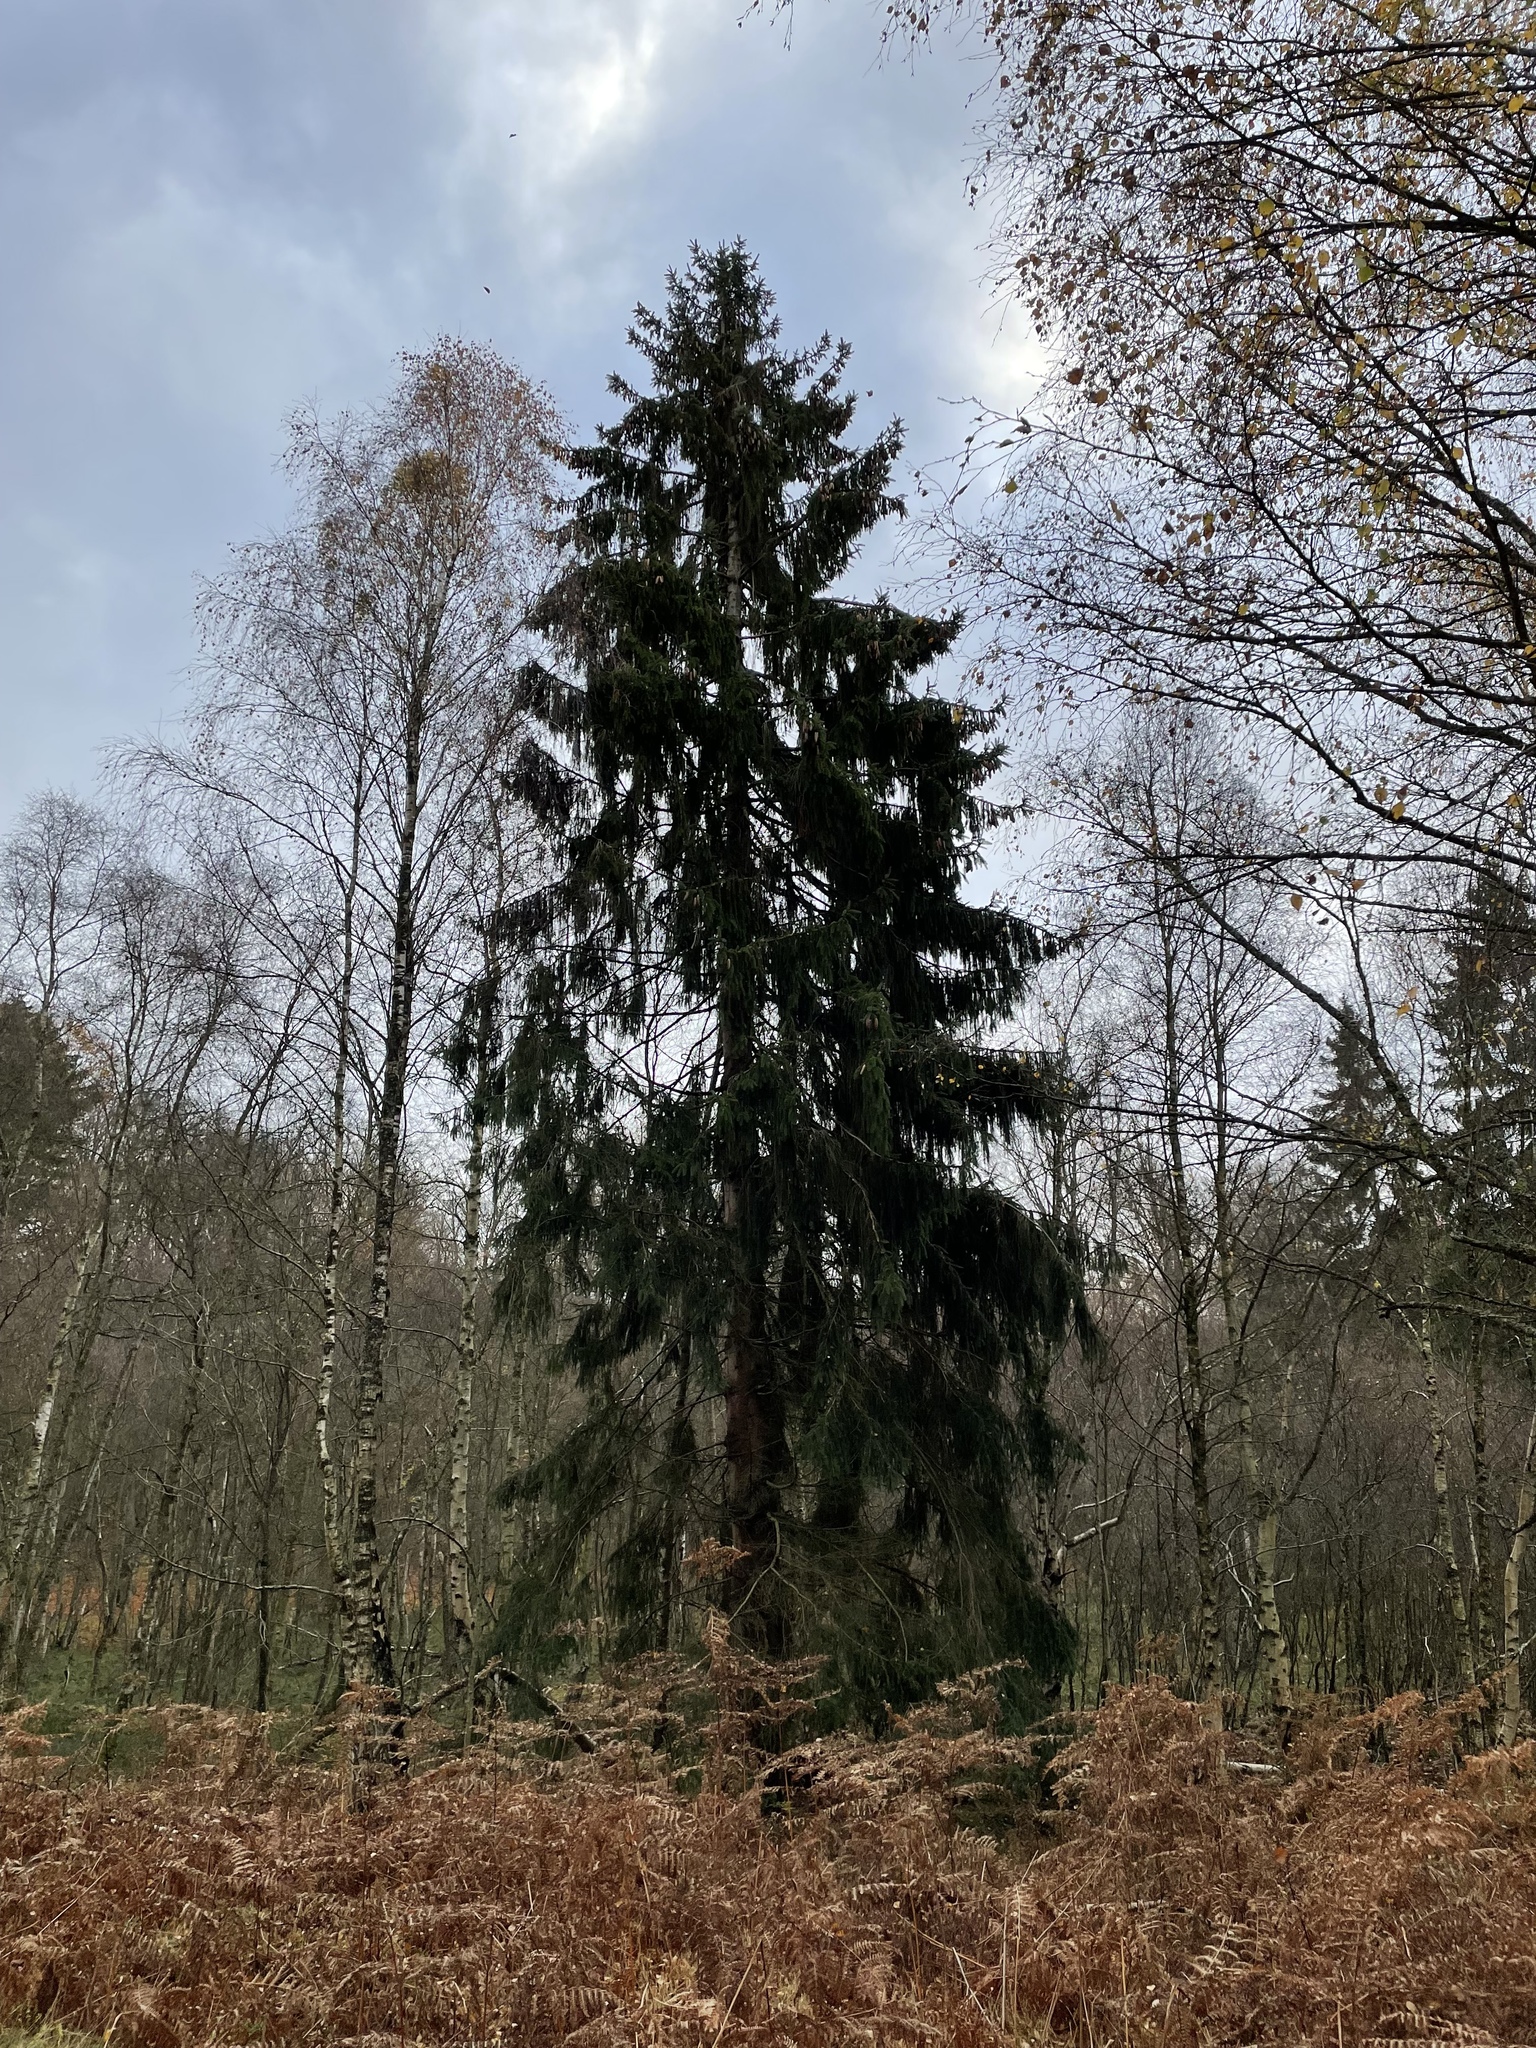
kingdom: Plantae
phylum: Tracheophyta
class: Pinopsida
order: Pinales
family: Pinaceae
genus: Picea
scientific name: Picea abies
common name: Norway spruce
